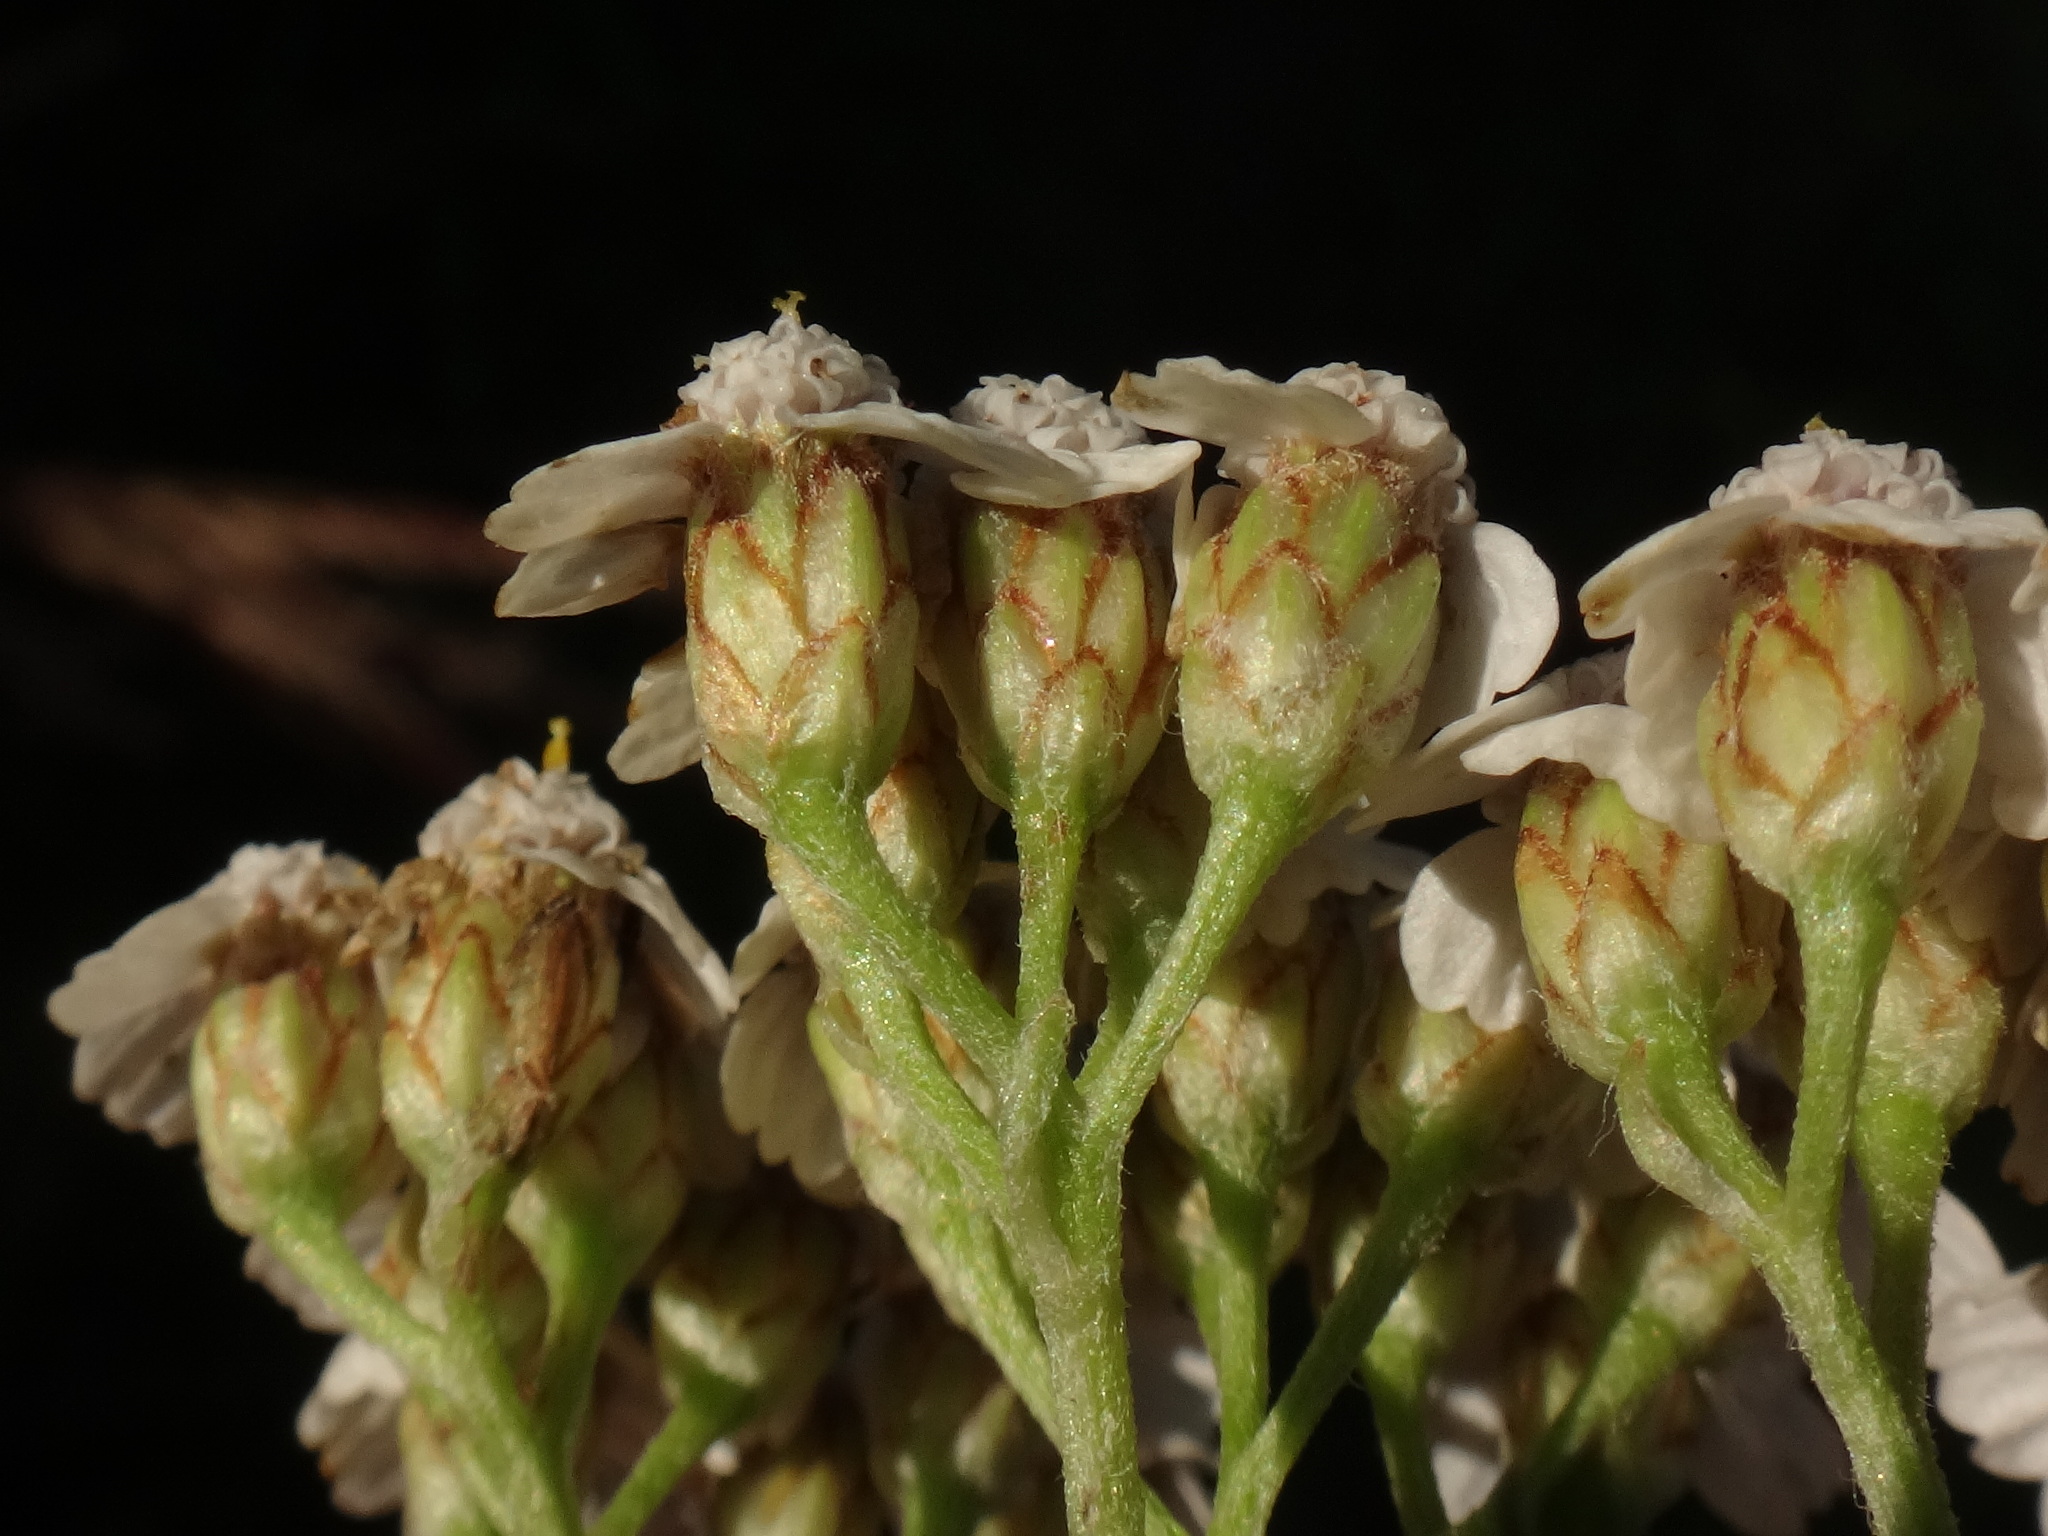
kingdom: Plantae
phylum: Tracheophyta
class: Magnoliopsida
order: Asterales
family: Asteraceae
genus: Achillea
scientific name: Achillea millefolium
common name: Yarrow
